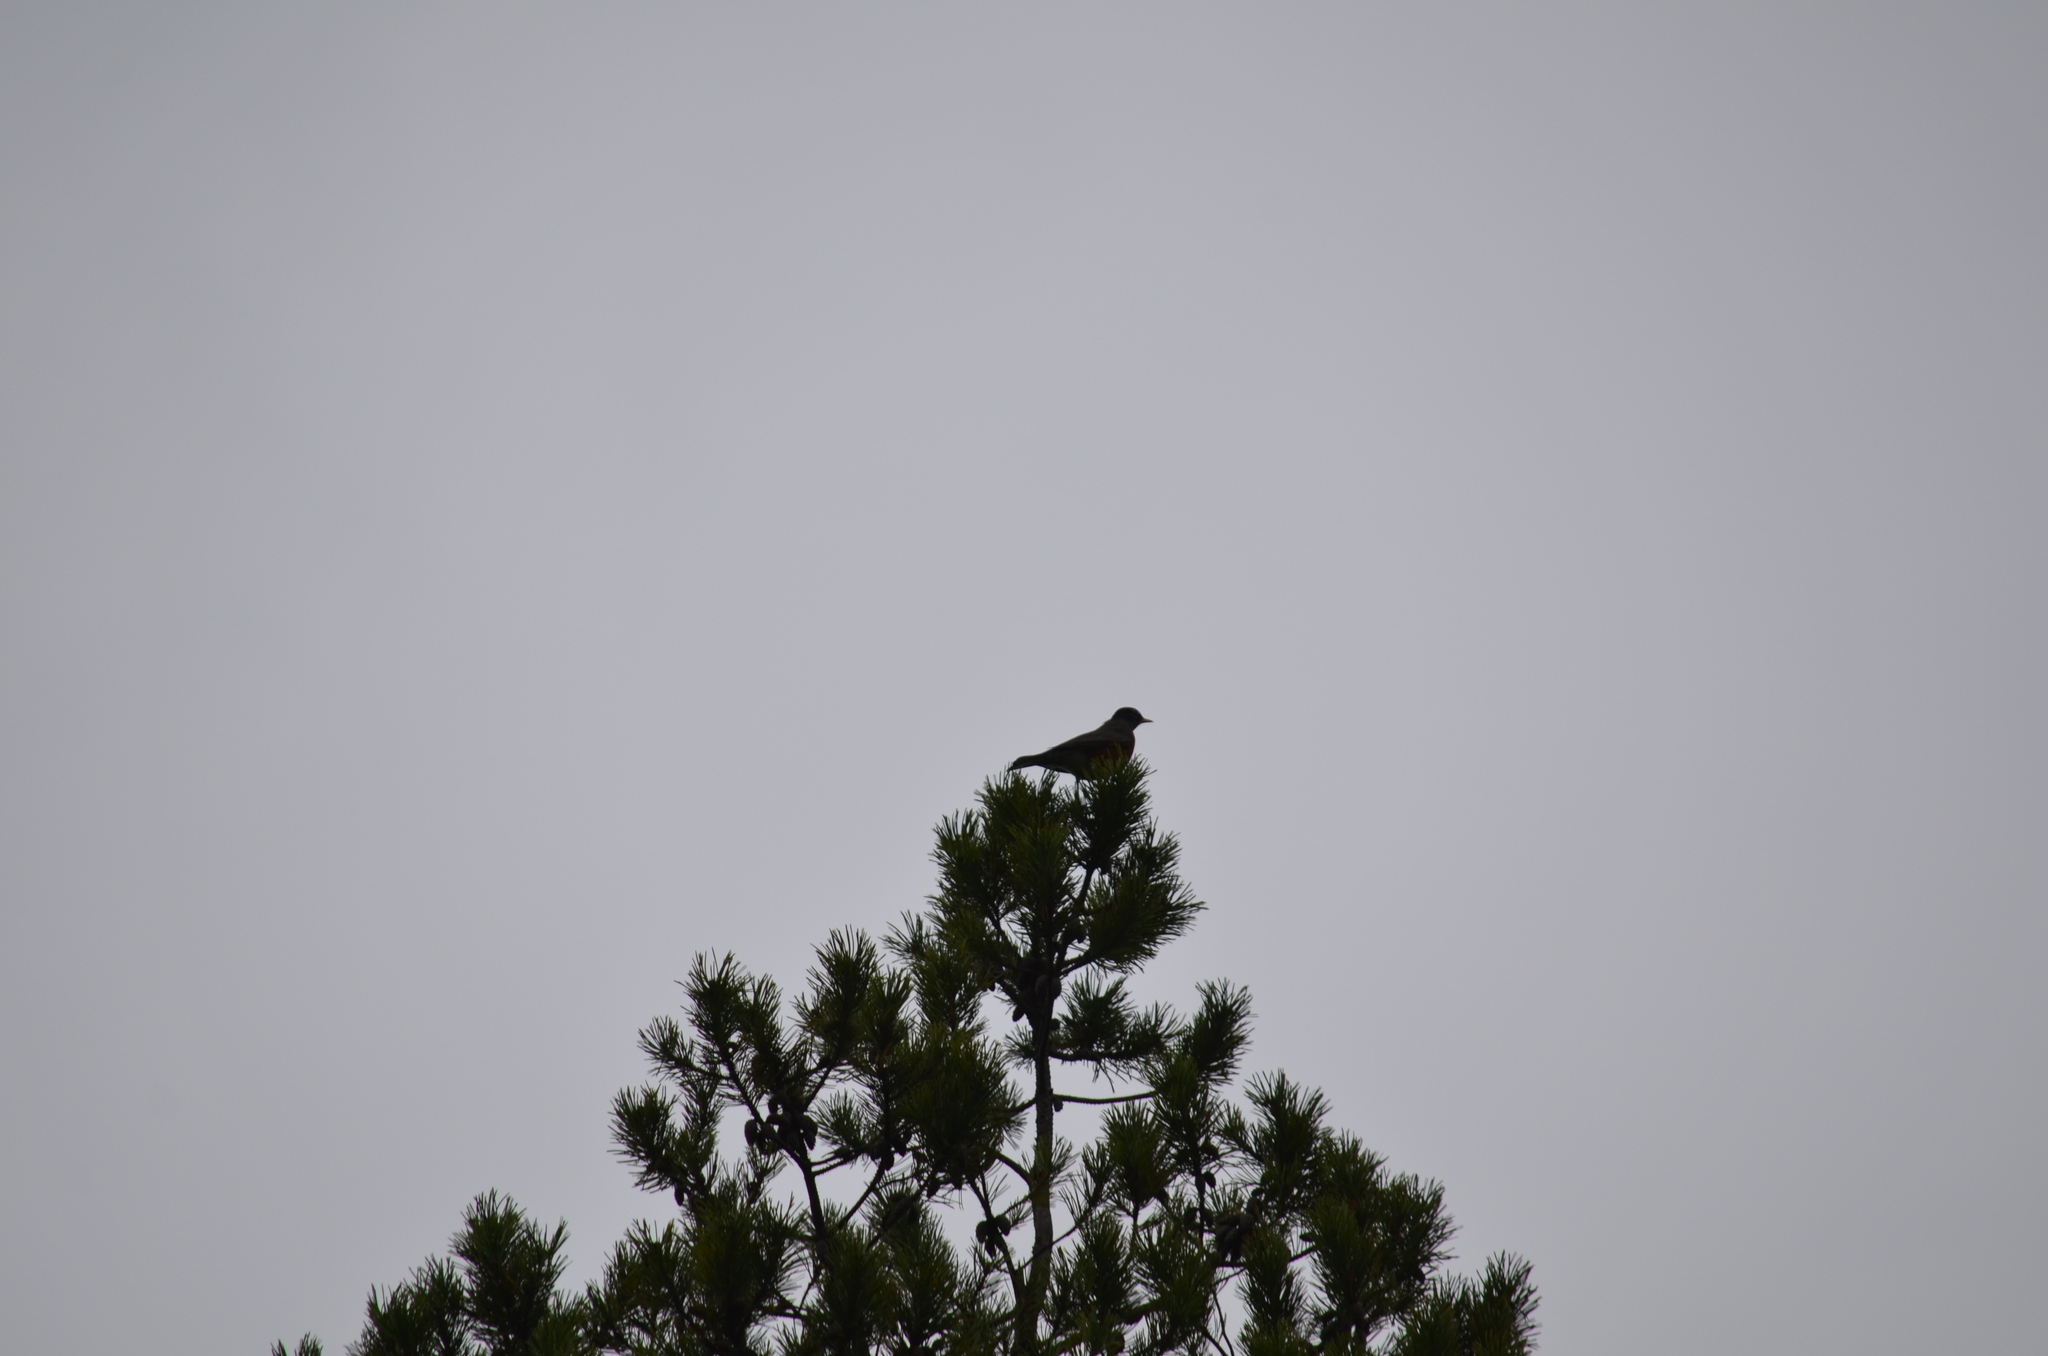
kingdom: Animalia
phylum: Chordata
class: Aves
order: Passeriformes
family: Turdidae
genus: Turdus
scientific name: Turdus migratorius
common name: American robin
